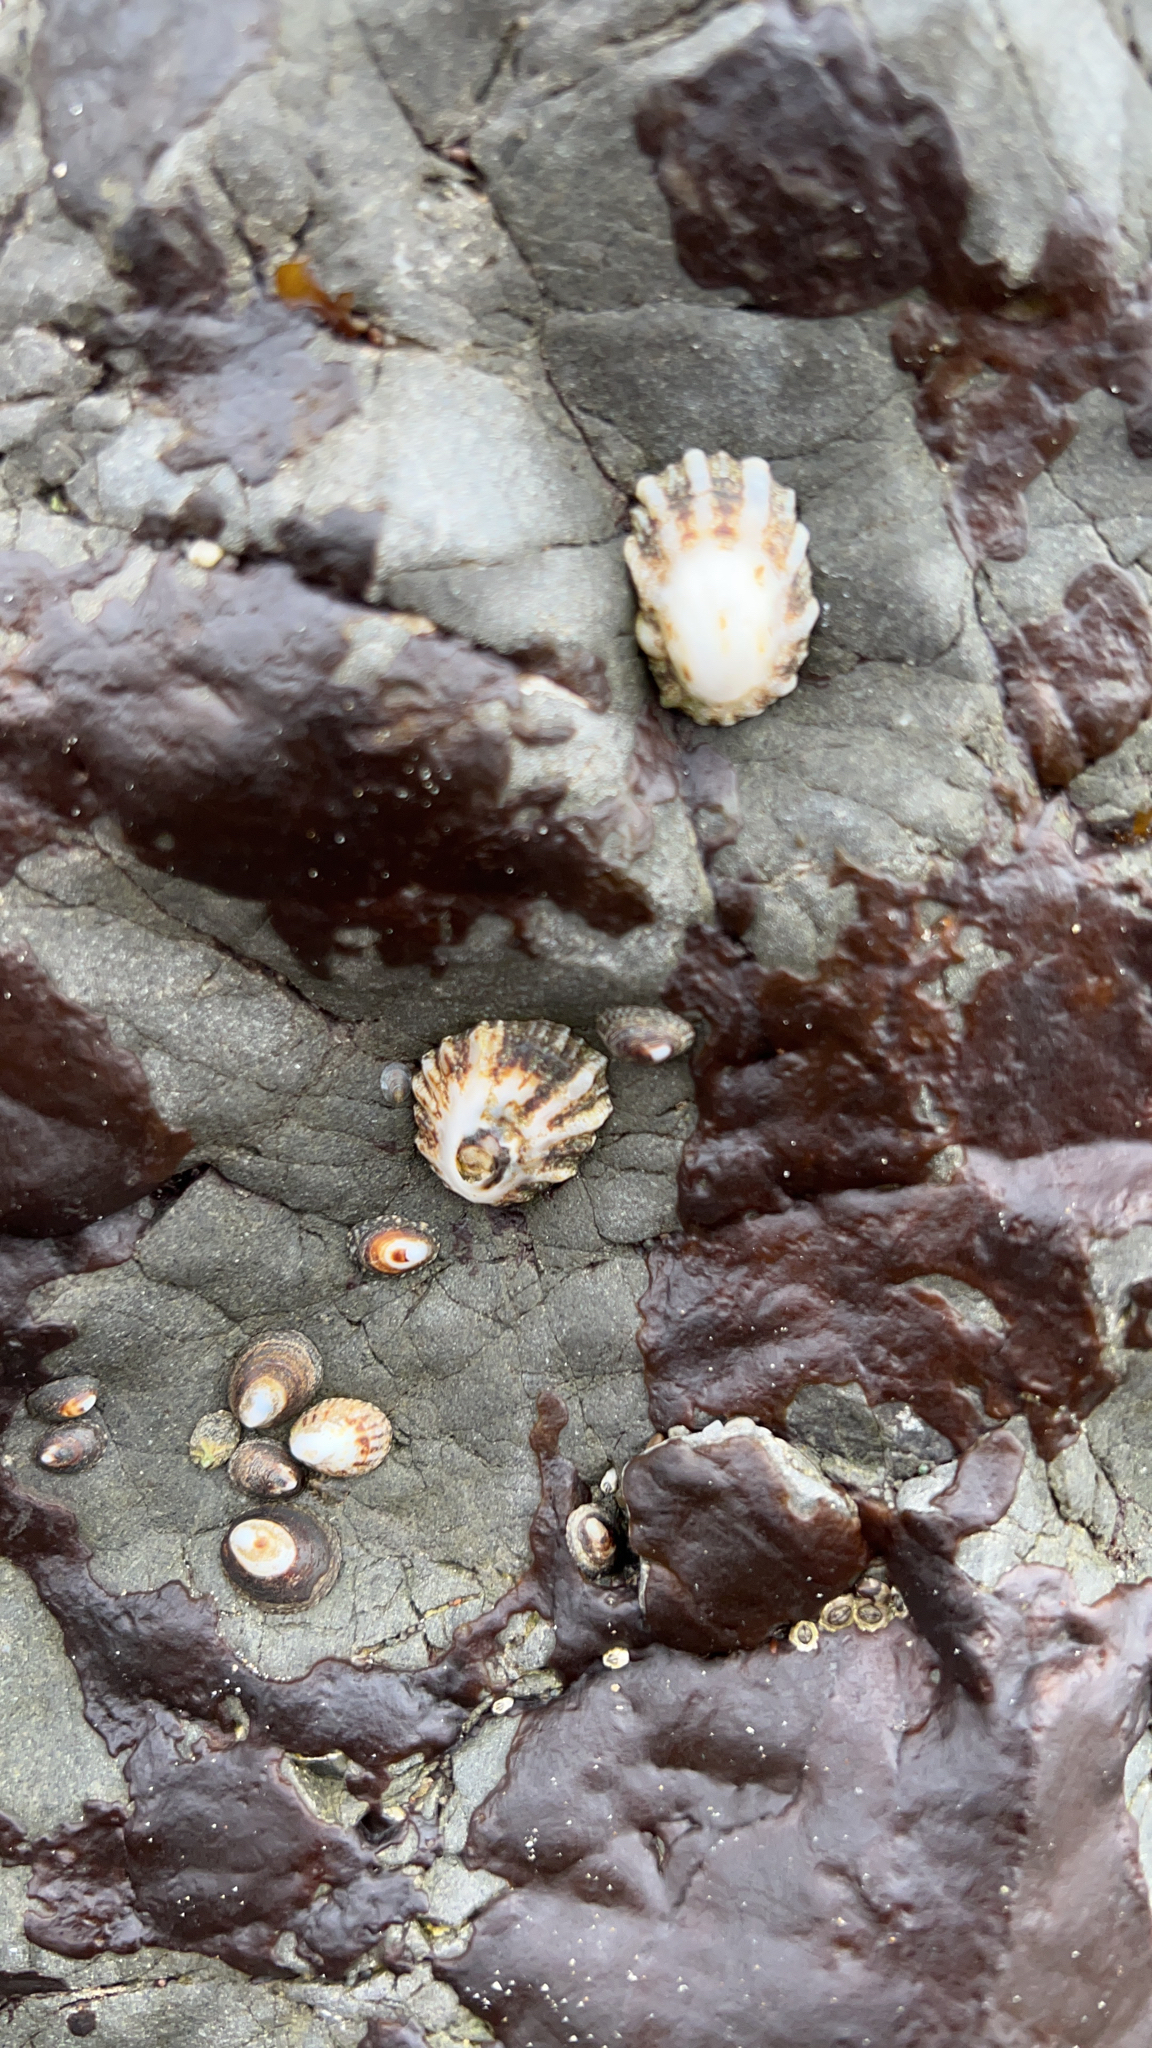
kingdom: Animalia
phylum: Mollusca
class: Gastropoda
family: Lottiidae
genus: Lottia
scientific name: Lottia scabra
